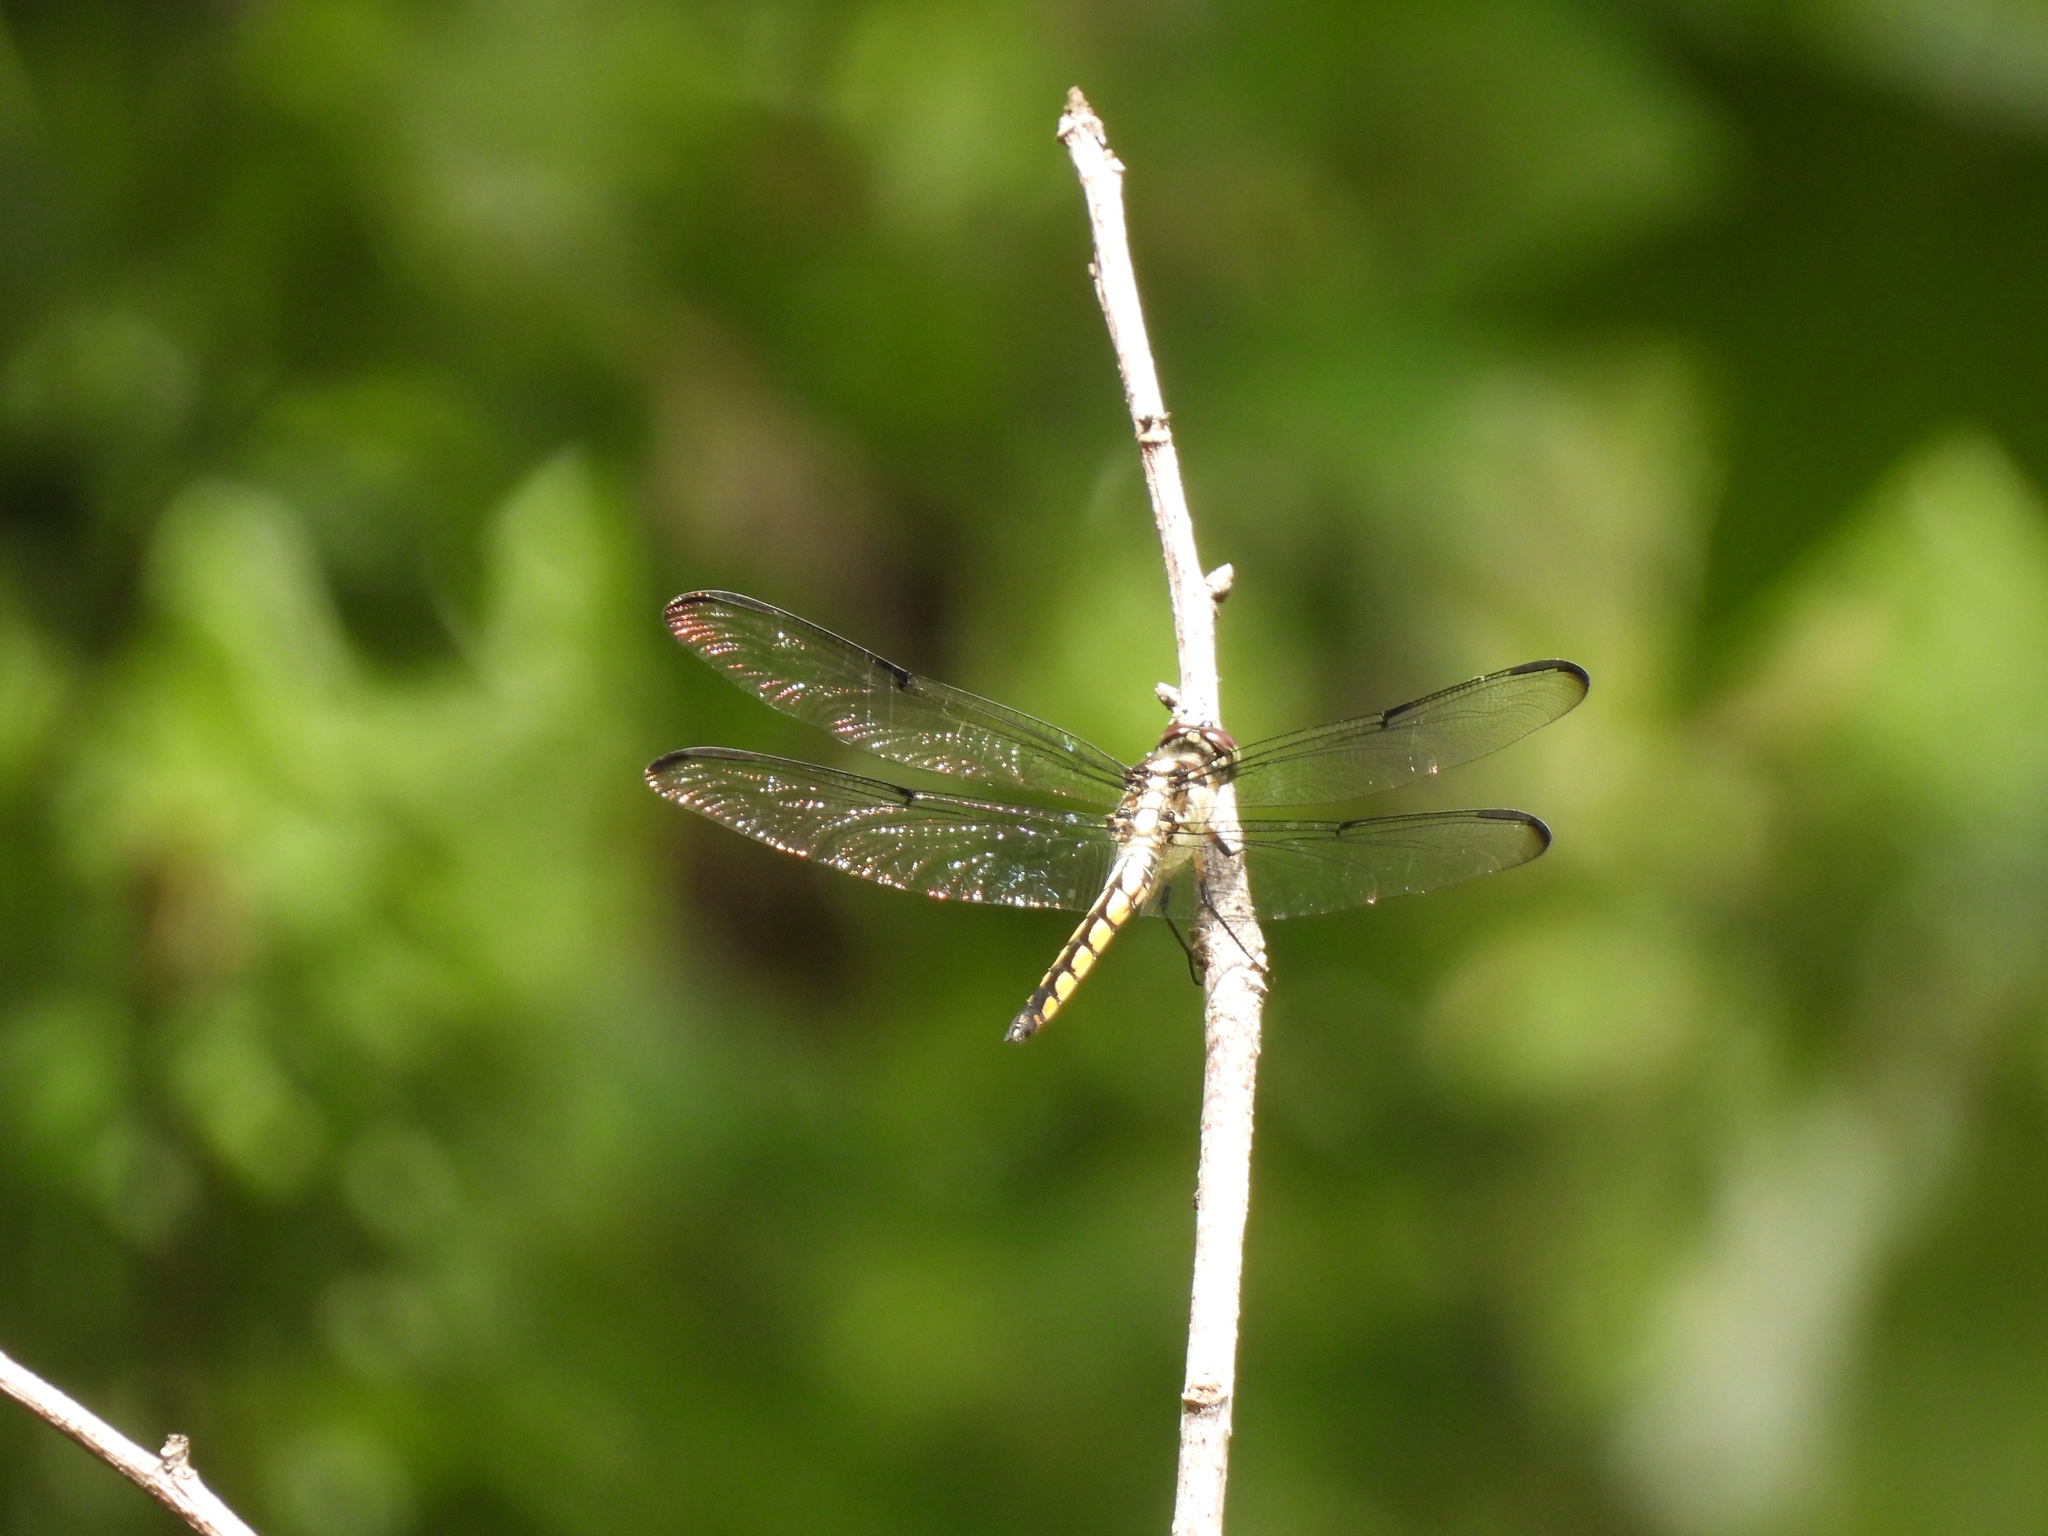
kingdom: Animalia
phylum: Arthropoda
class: Insecta
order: Odonata
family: Libellulidae
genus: Libellula
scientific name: Libellula vibrans
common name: Great blue skimmer
